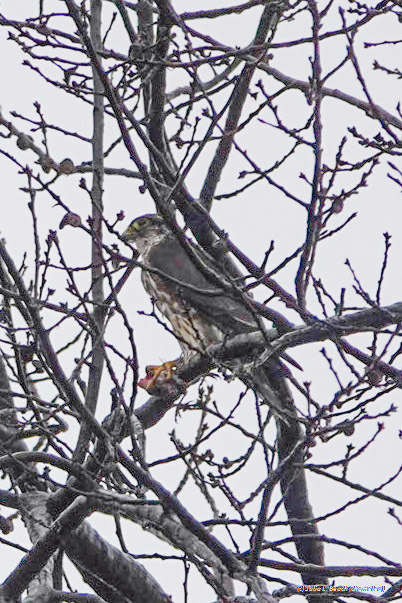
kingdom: Animalia
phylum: Chordata
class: Aves
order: Falconiformes
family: Falconidae
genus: Falco
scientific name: Falco columbarius
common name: Merlin
